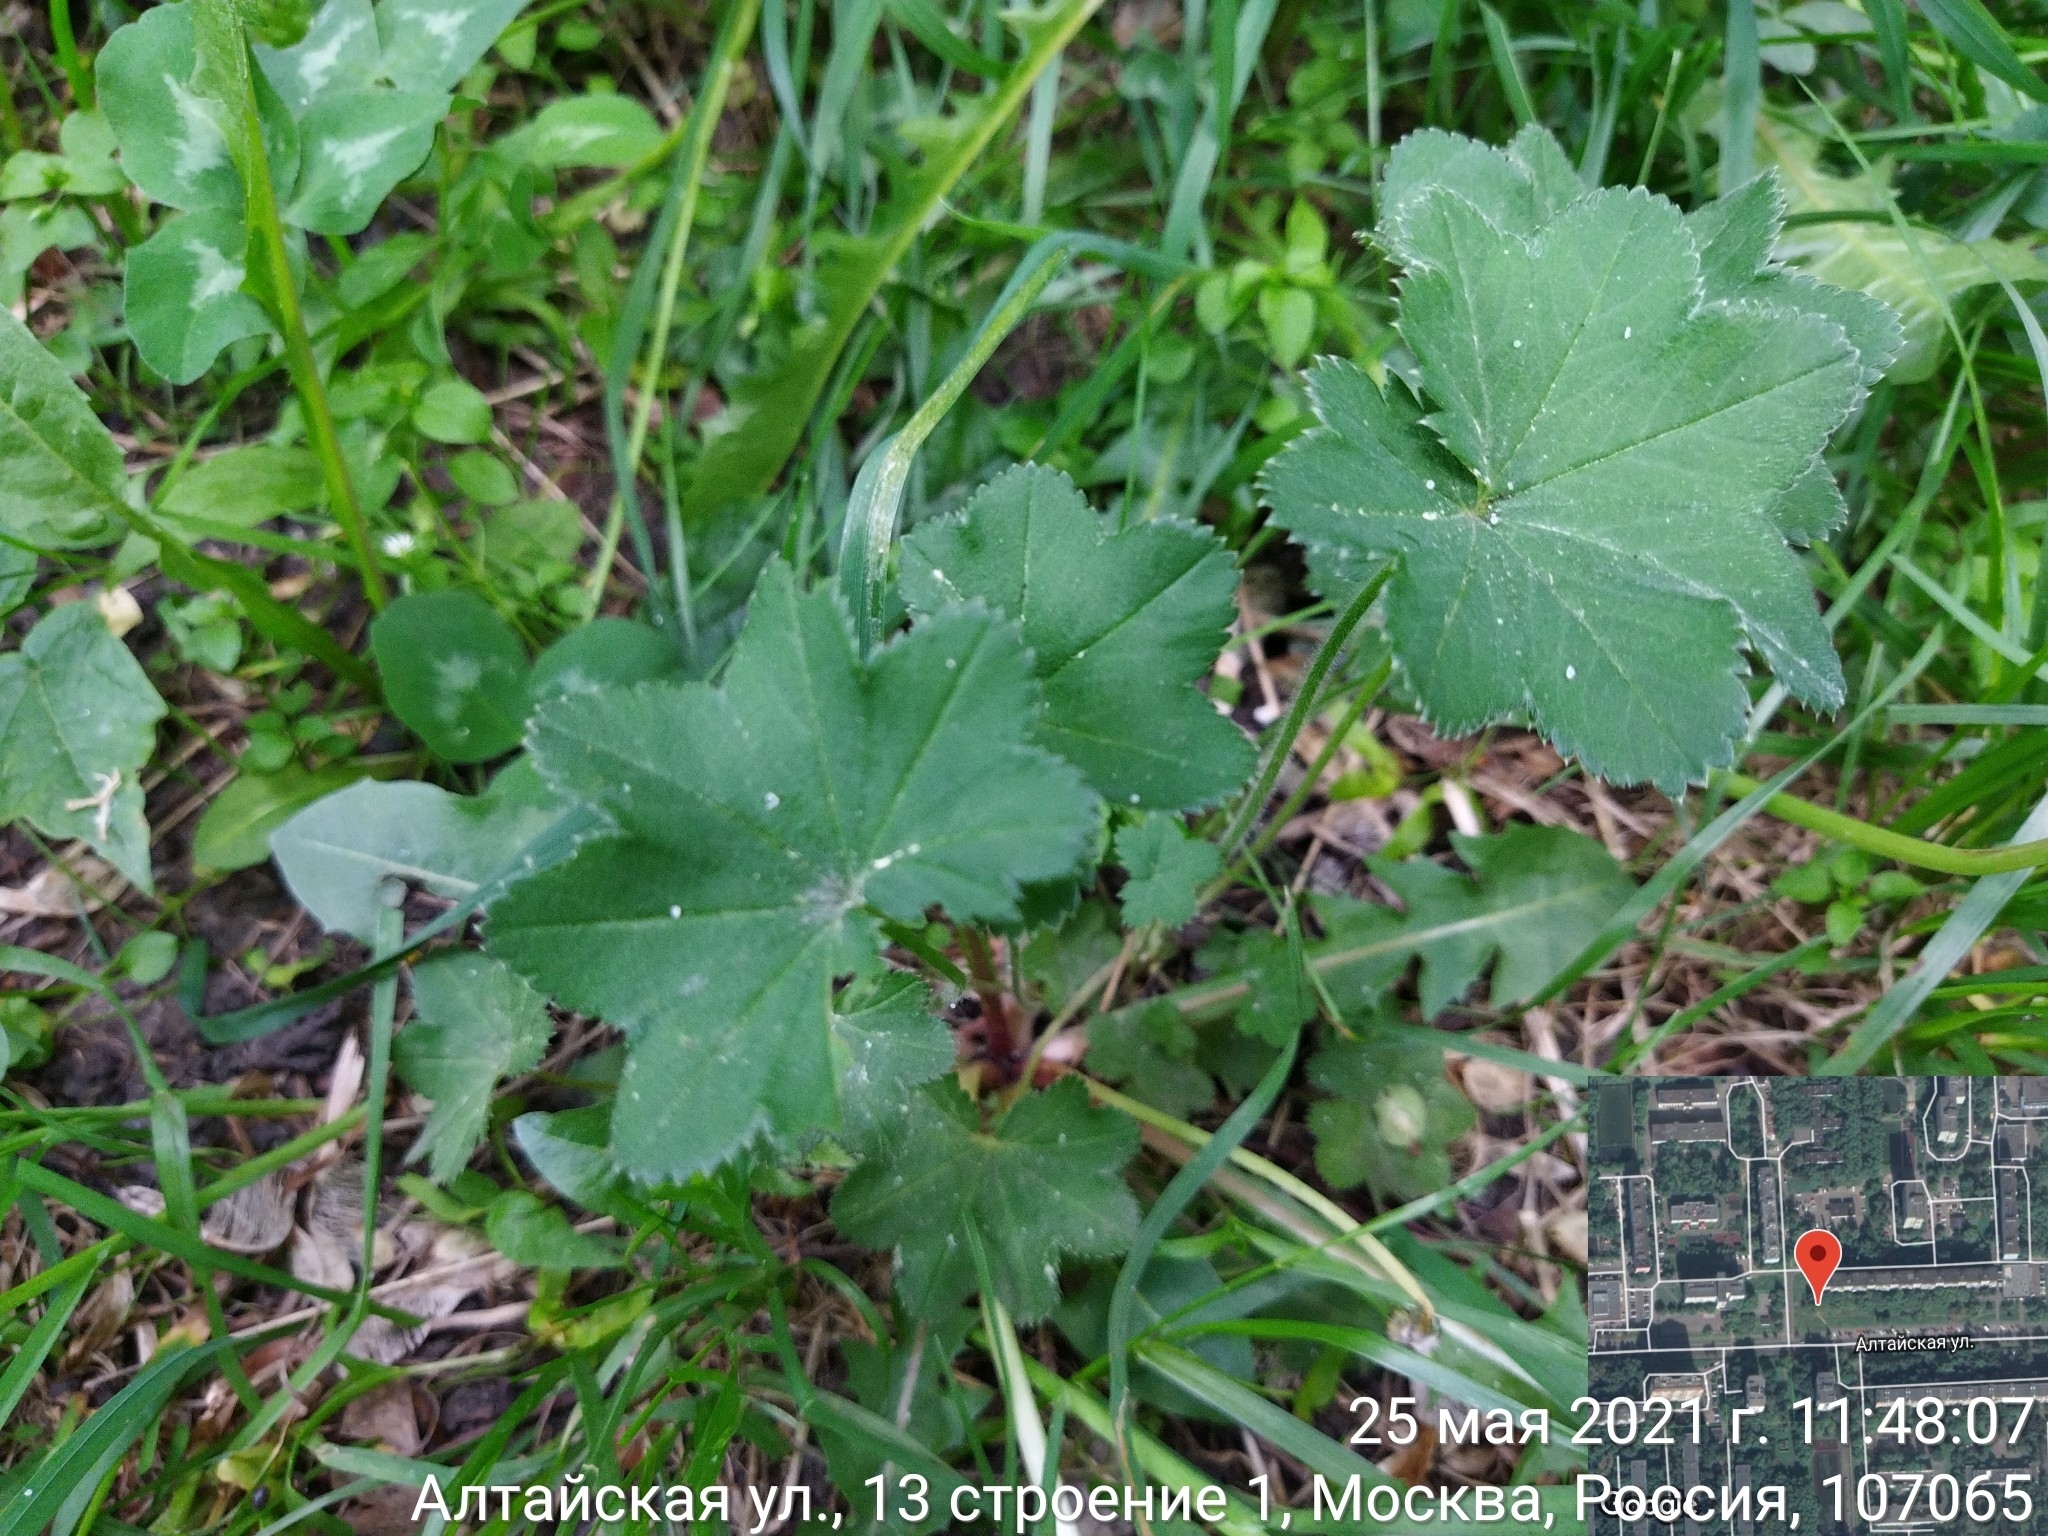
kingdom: Plantae
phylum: Tracheophyta
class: Magnoliopsida
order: Rosales
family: Rosaceae
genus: Alchemilla
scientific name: Alchemilla
